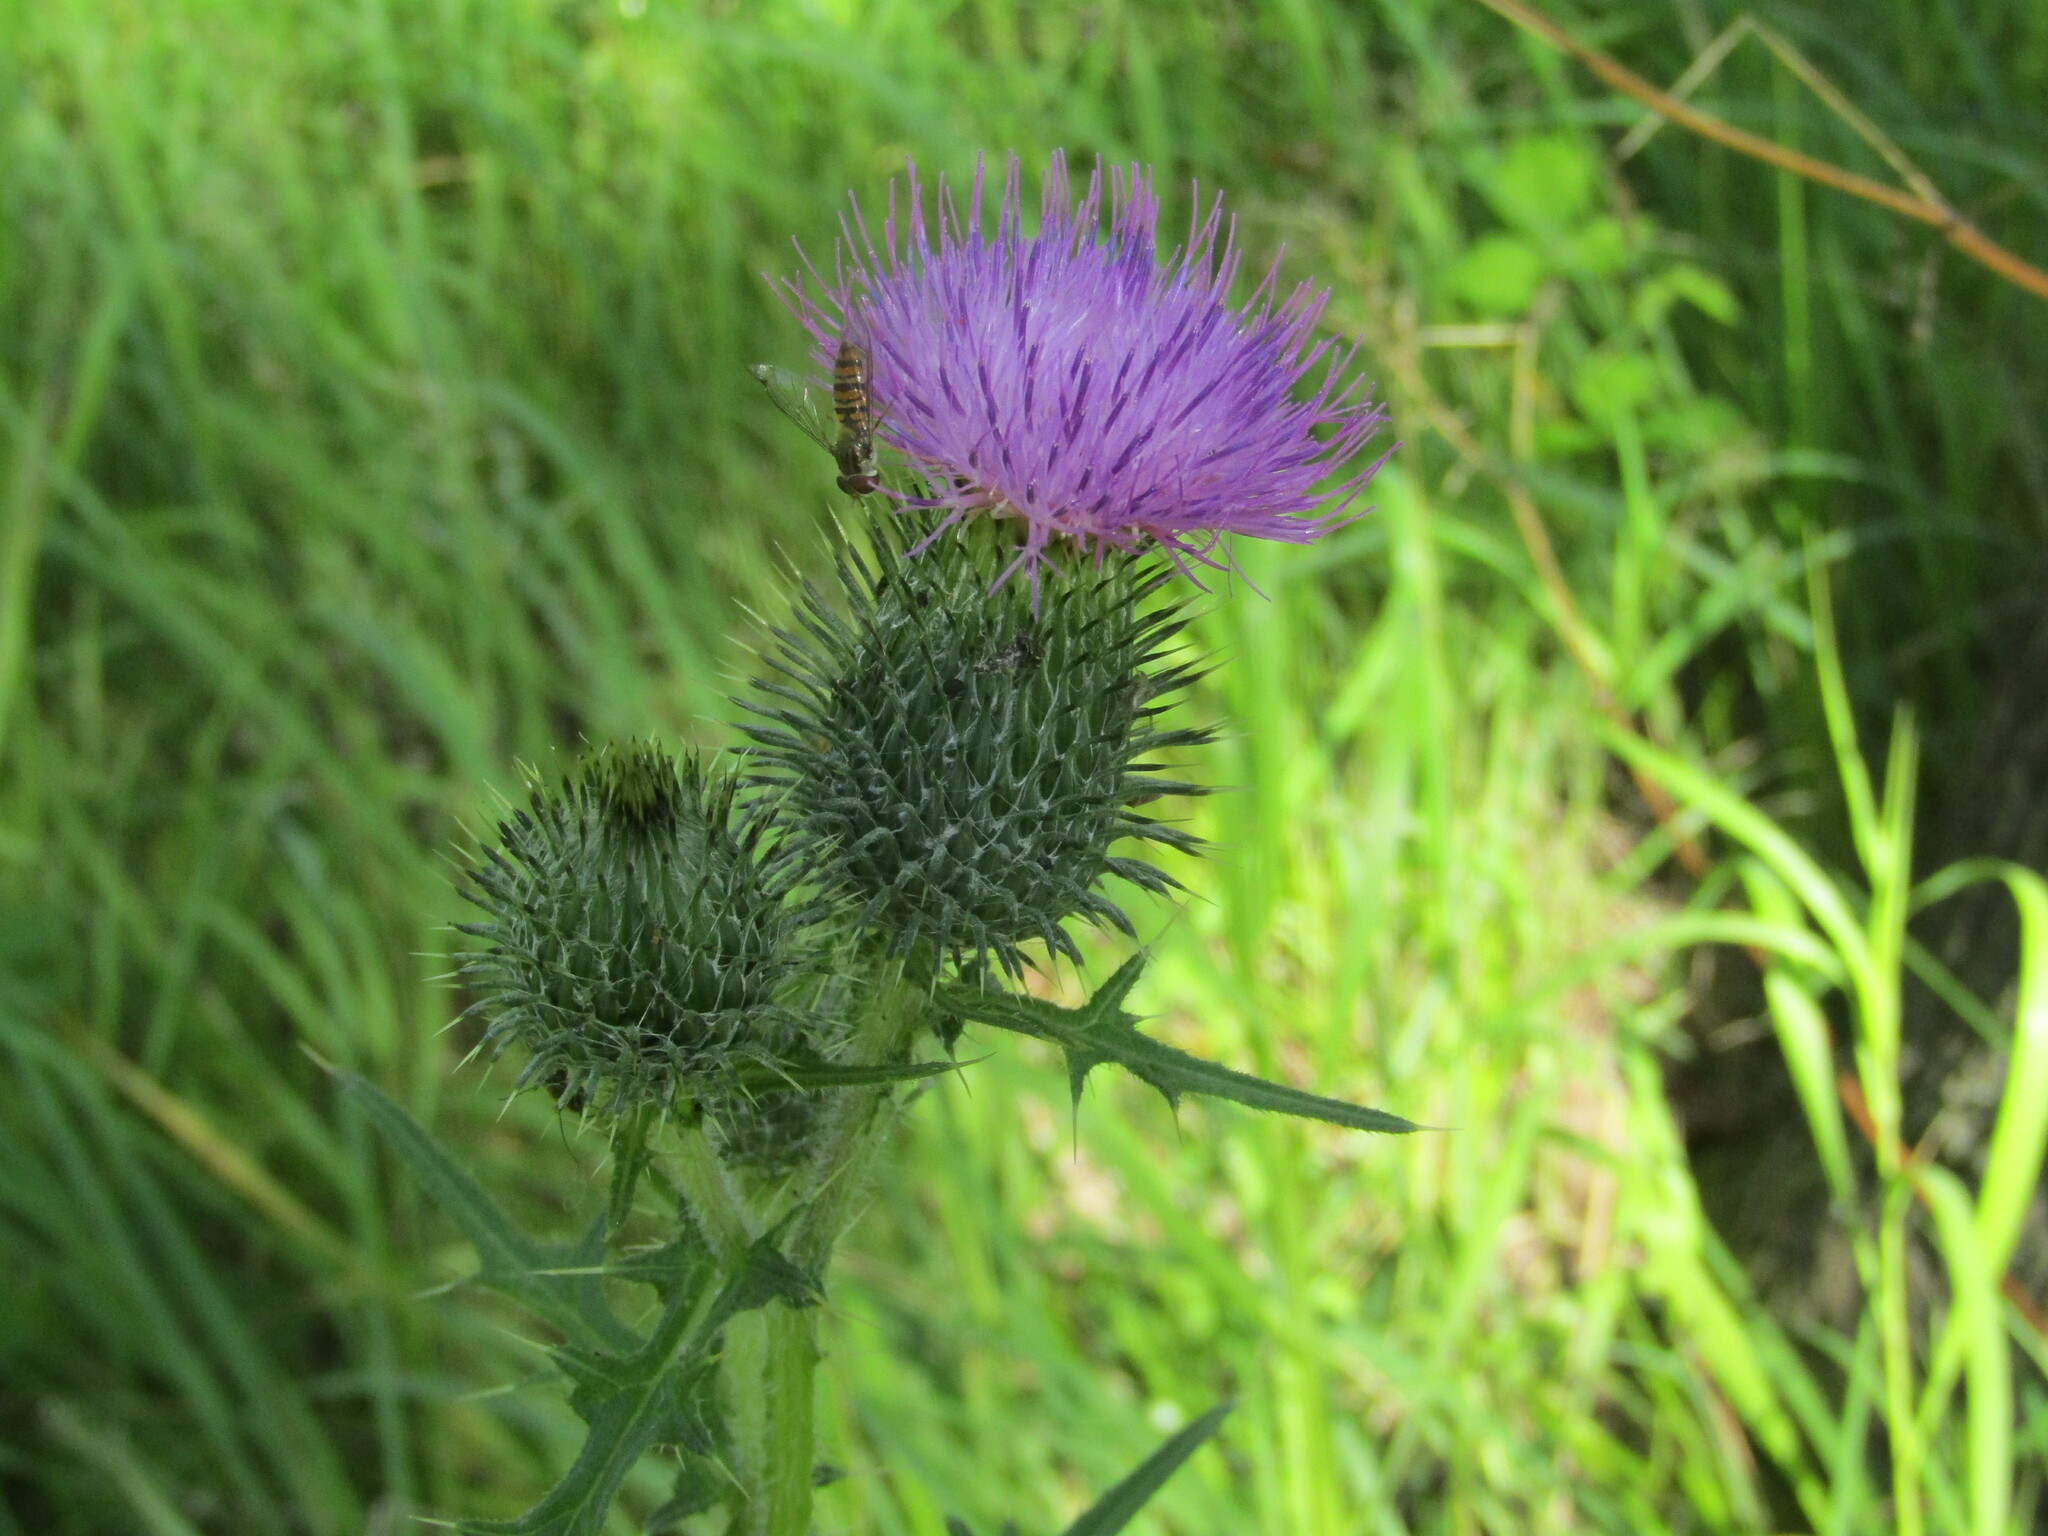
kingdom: Plantae
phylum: Tracheophyta
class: Magnoliopsida
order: Asterales
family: Asteraceae
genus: Cirsium
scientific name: Cirsium vulgare
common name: Bull thistle
